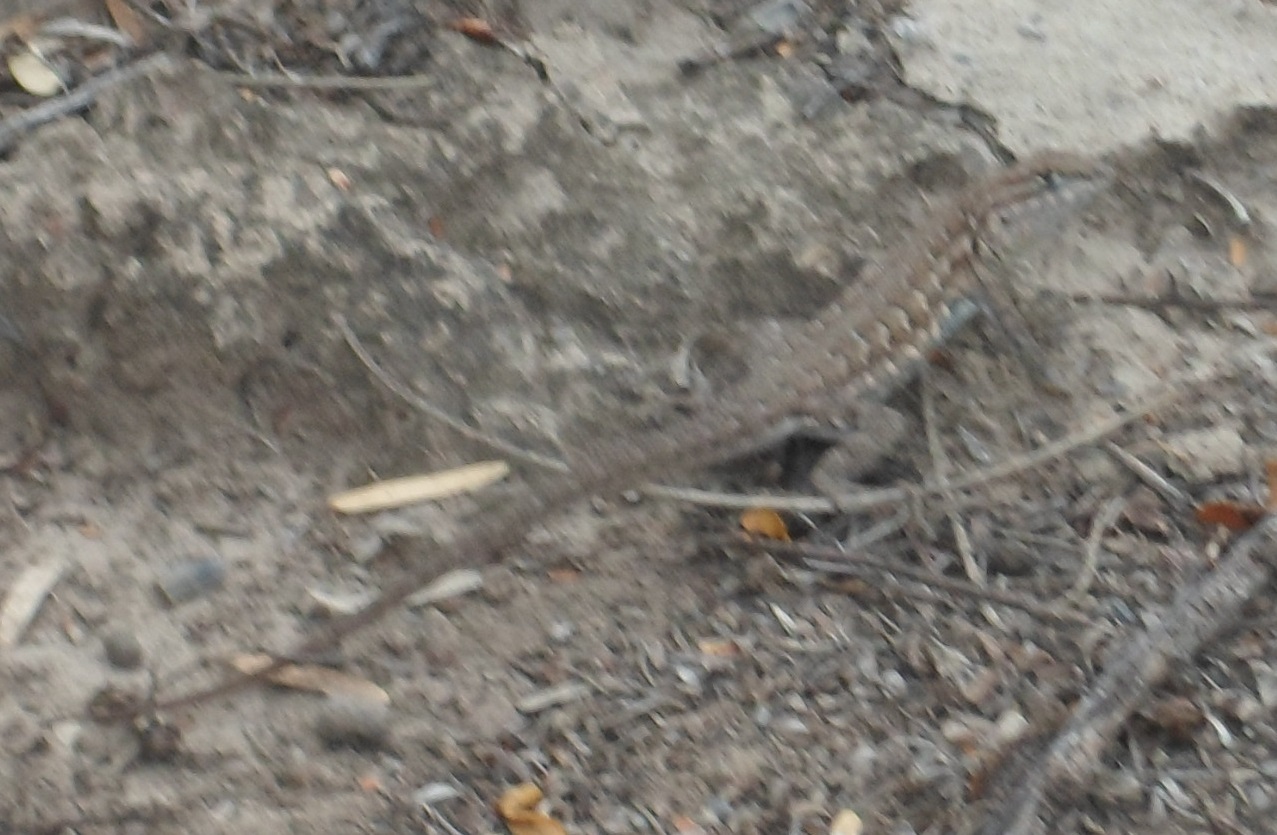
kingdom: Animalia
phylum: Chordata
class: Squamata
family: Phrynosomatidae
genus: Uta
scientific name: Uta stansburiana
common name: Side-blotched lizard
